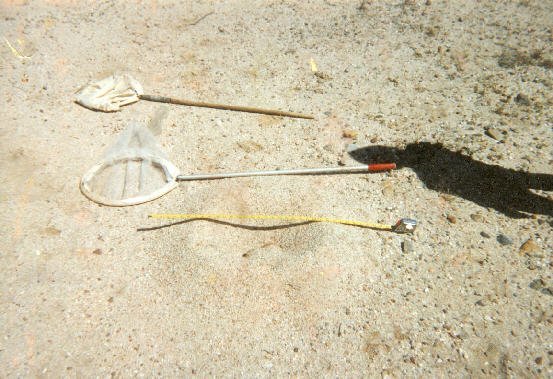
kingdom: Animalia
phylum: Arthropoda
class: Insecta
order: Hymenoptera
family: Formicidae
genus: Myrmecocystus
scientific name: Myrmecocystus mexicanus
